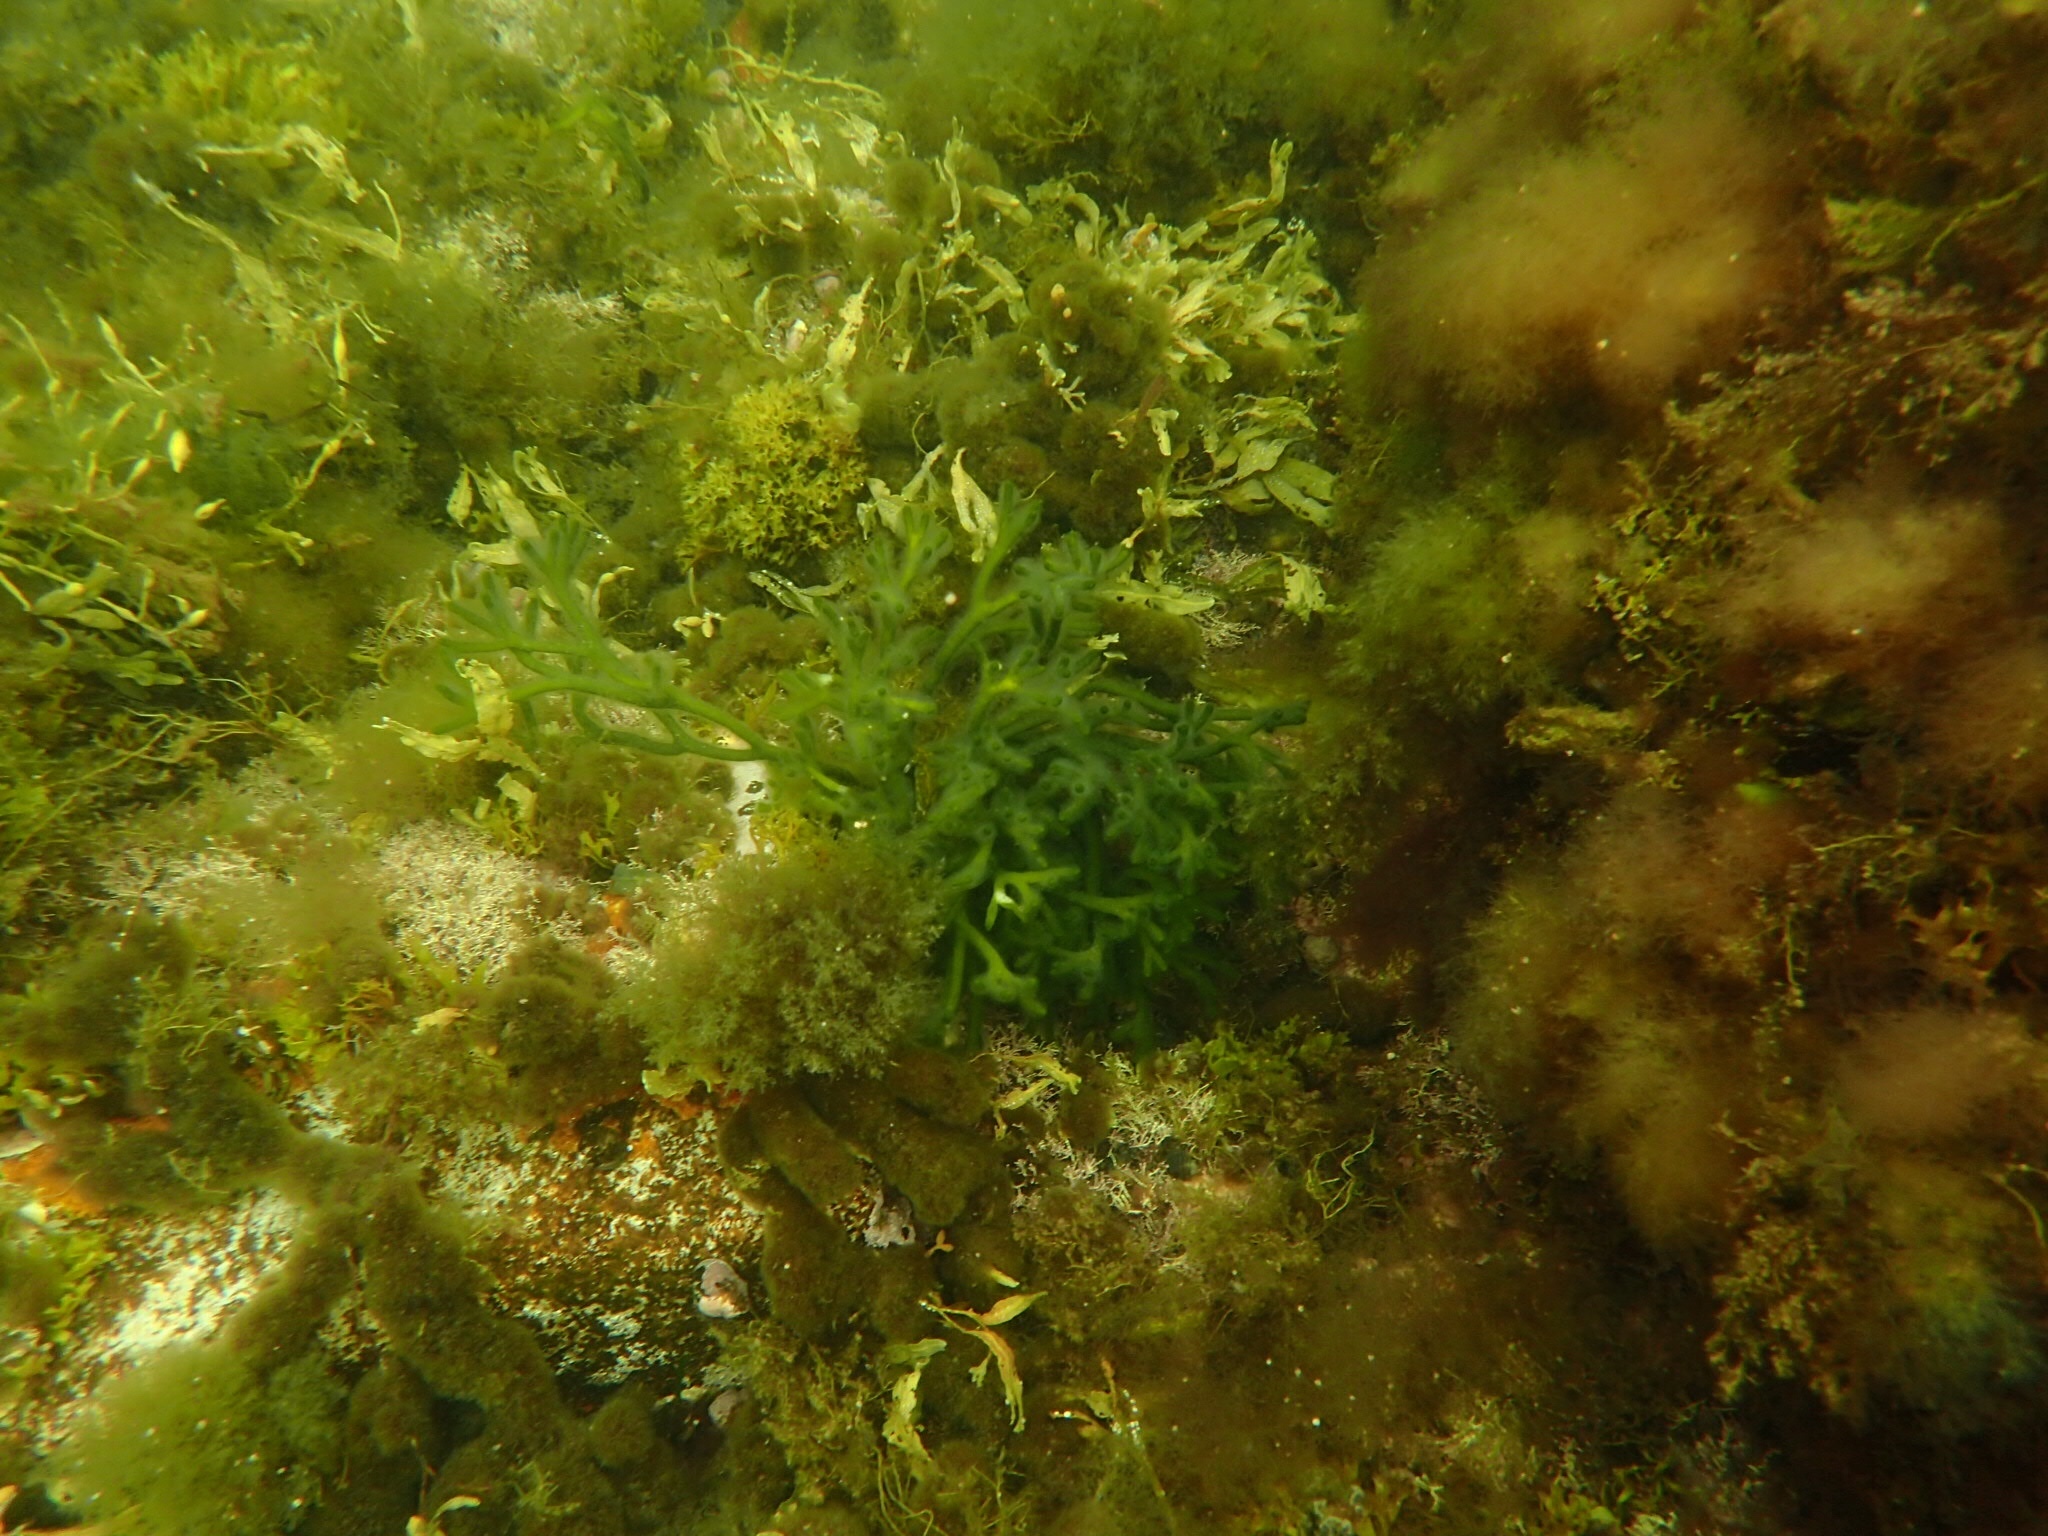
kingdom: Plantae
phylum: Chlorophyta
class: Ulvophyceae
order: Bryopsidales
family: Codiaceae
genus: Codium
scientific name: Codium fragile
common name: Dead man's fingers
